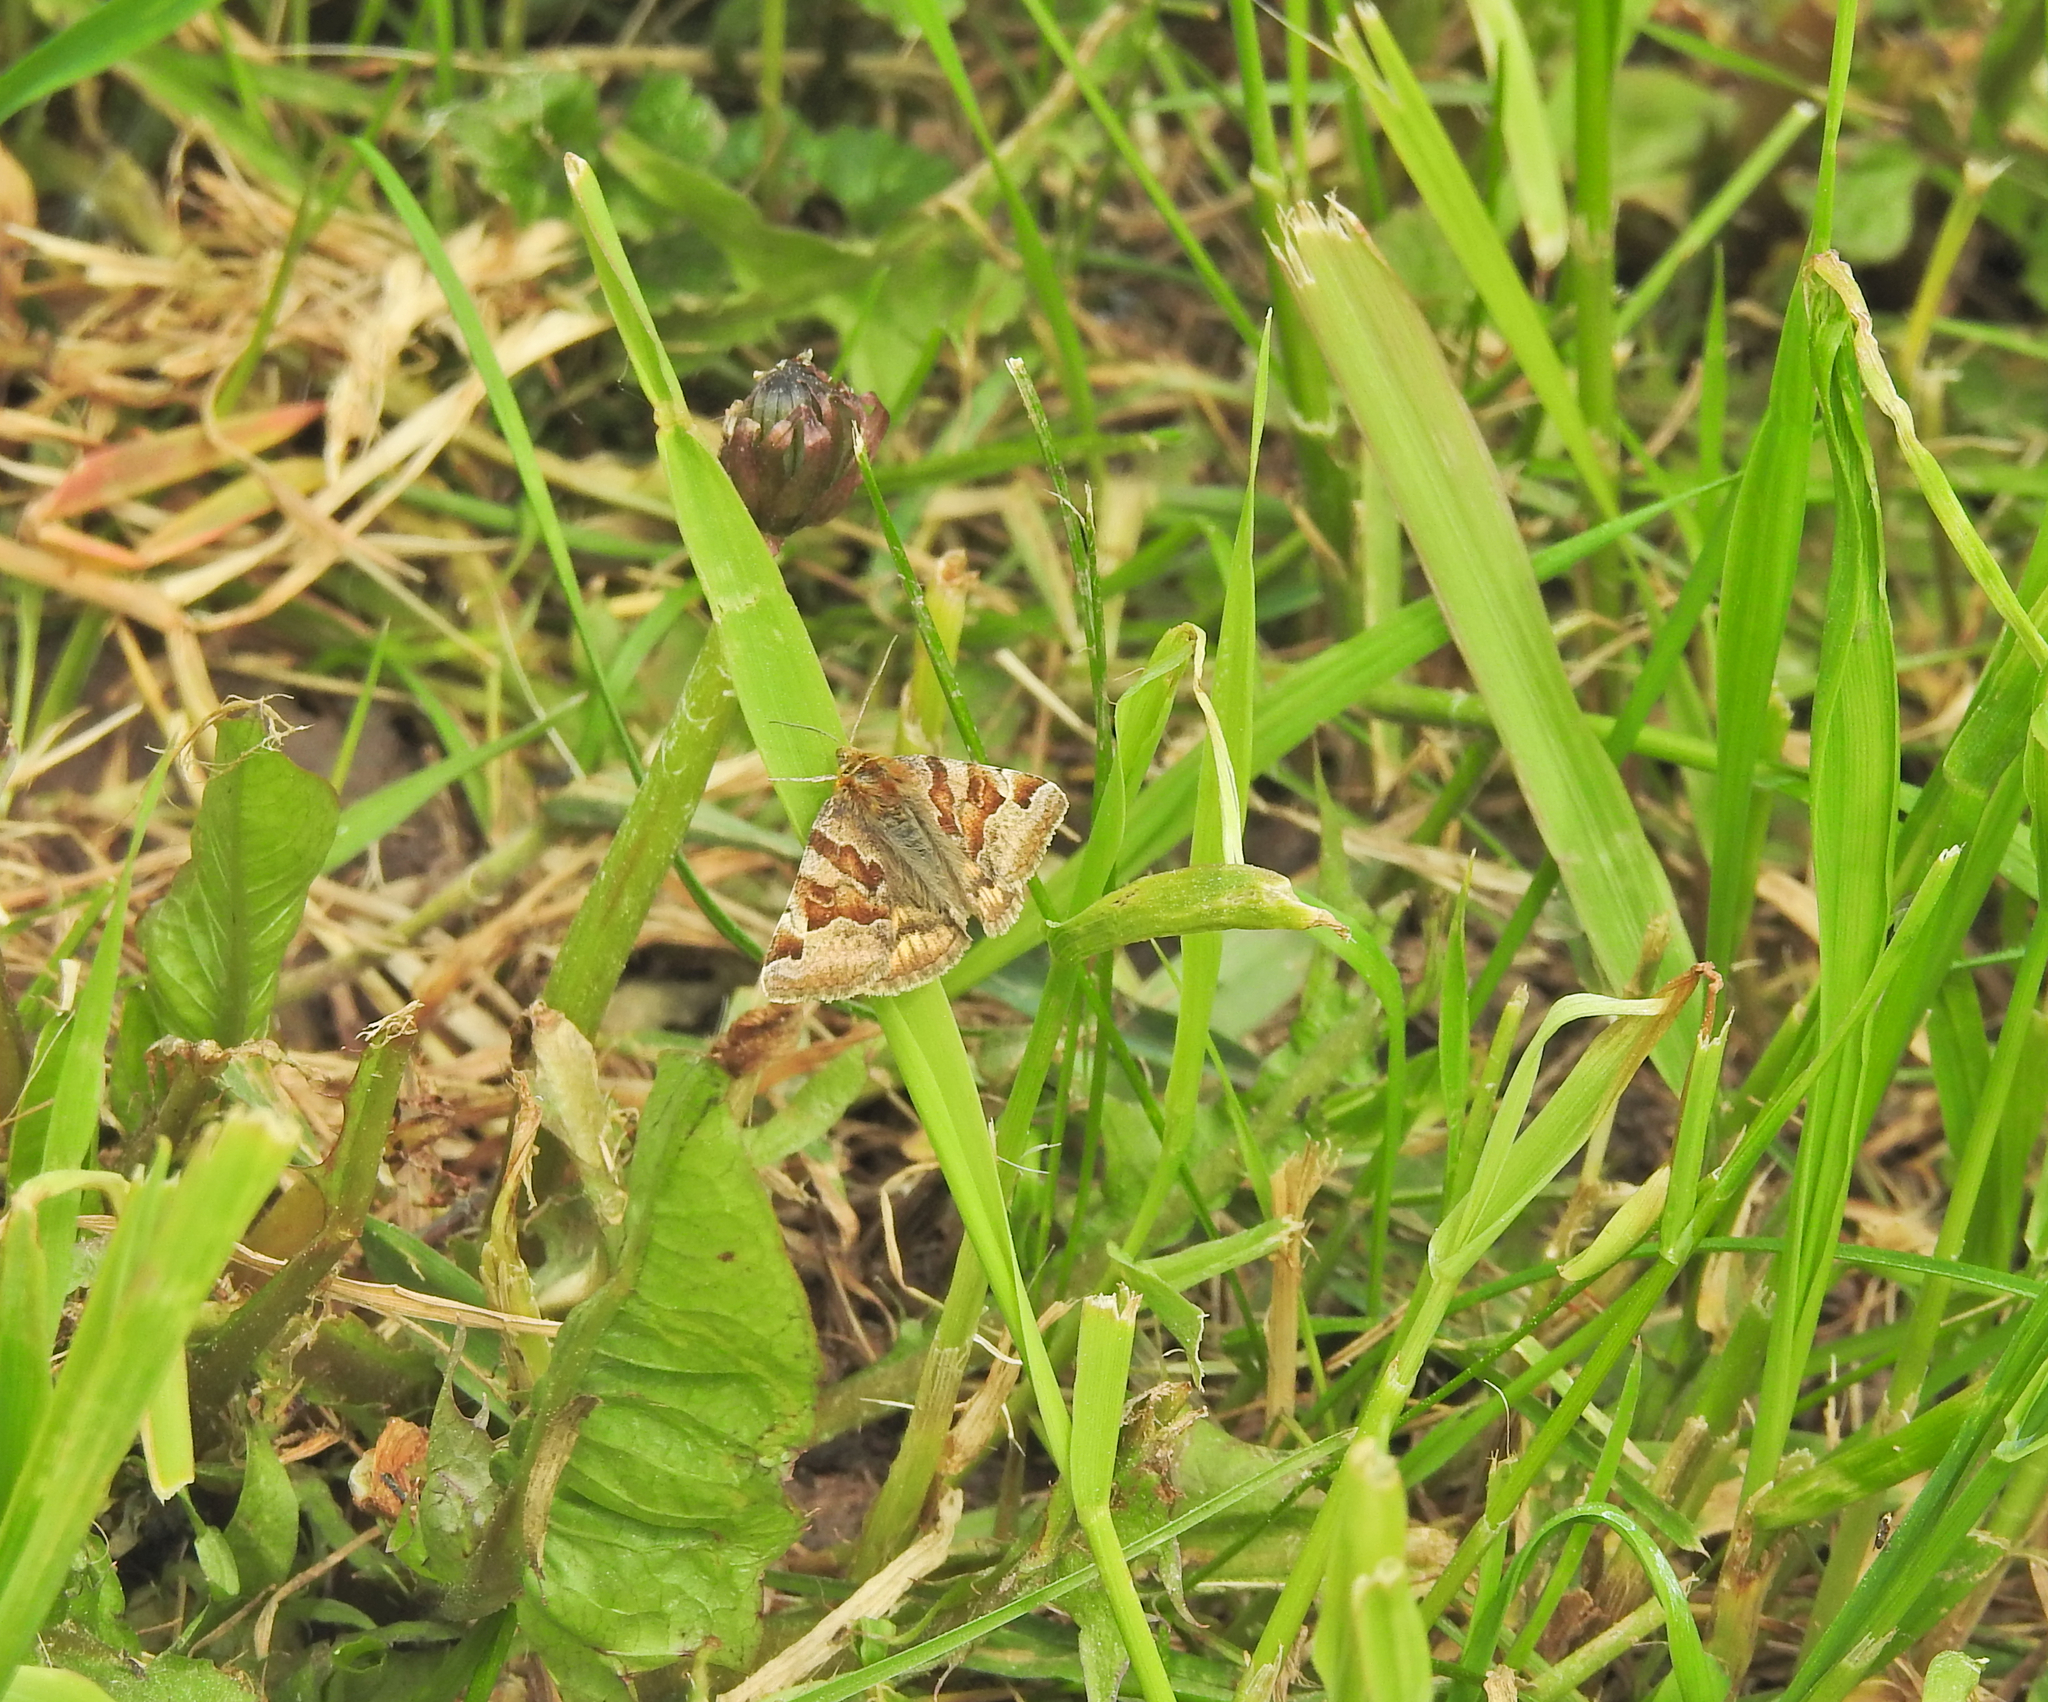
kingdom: Animalia
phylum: Arthropoda
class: Insecta
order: Lepidoptera
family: Erebidae
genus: Euclidia
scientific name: Euclidia glyphica
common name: Burnet companion
